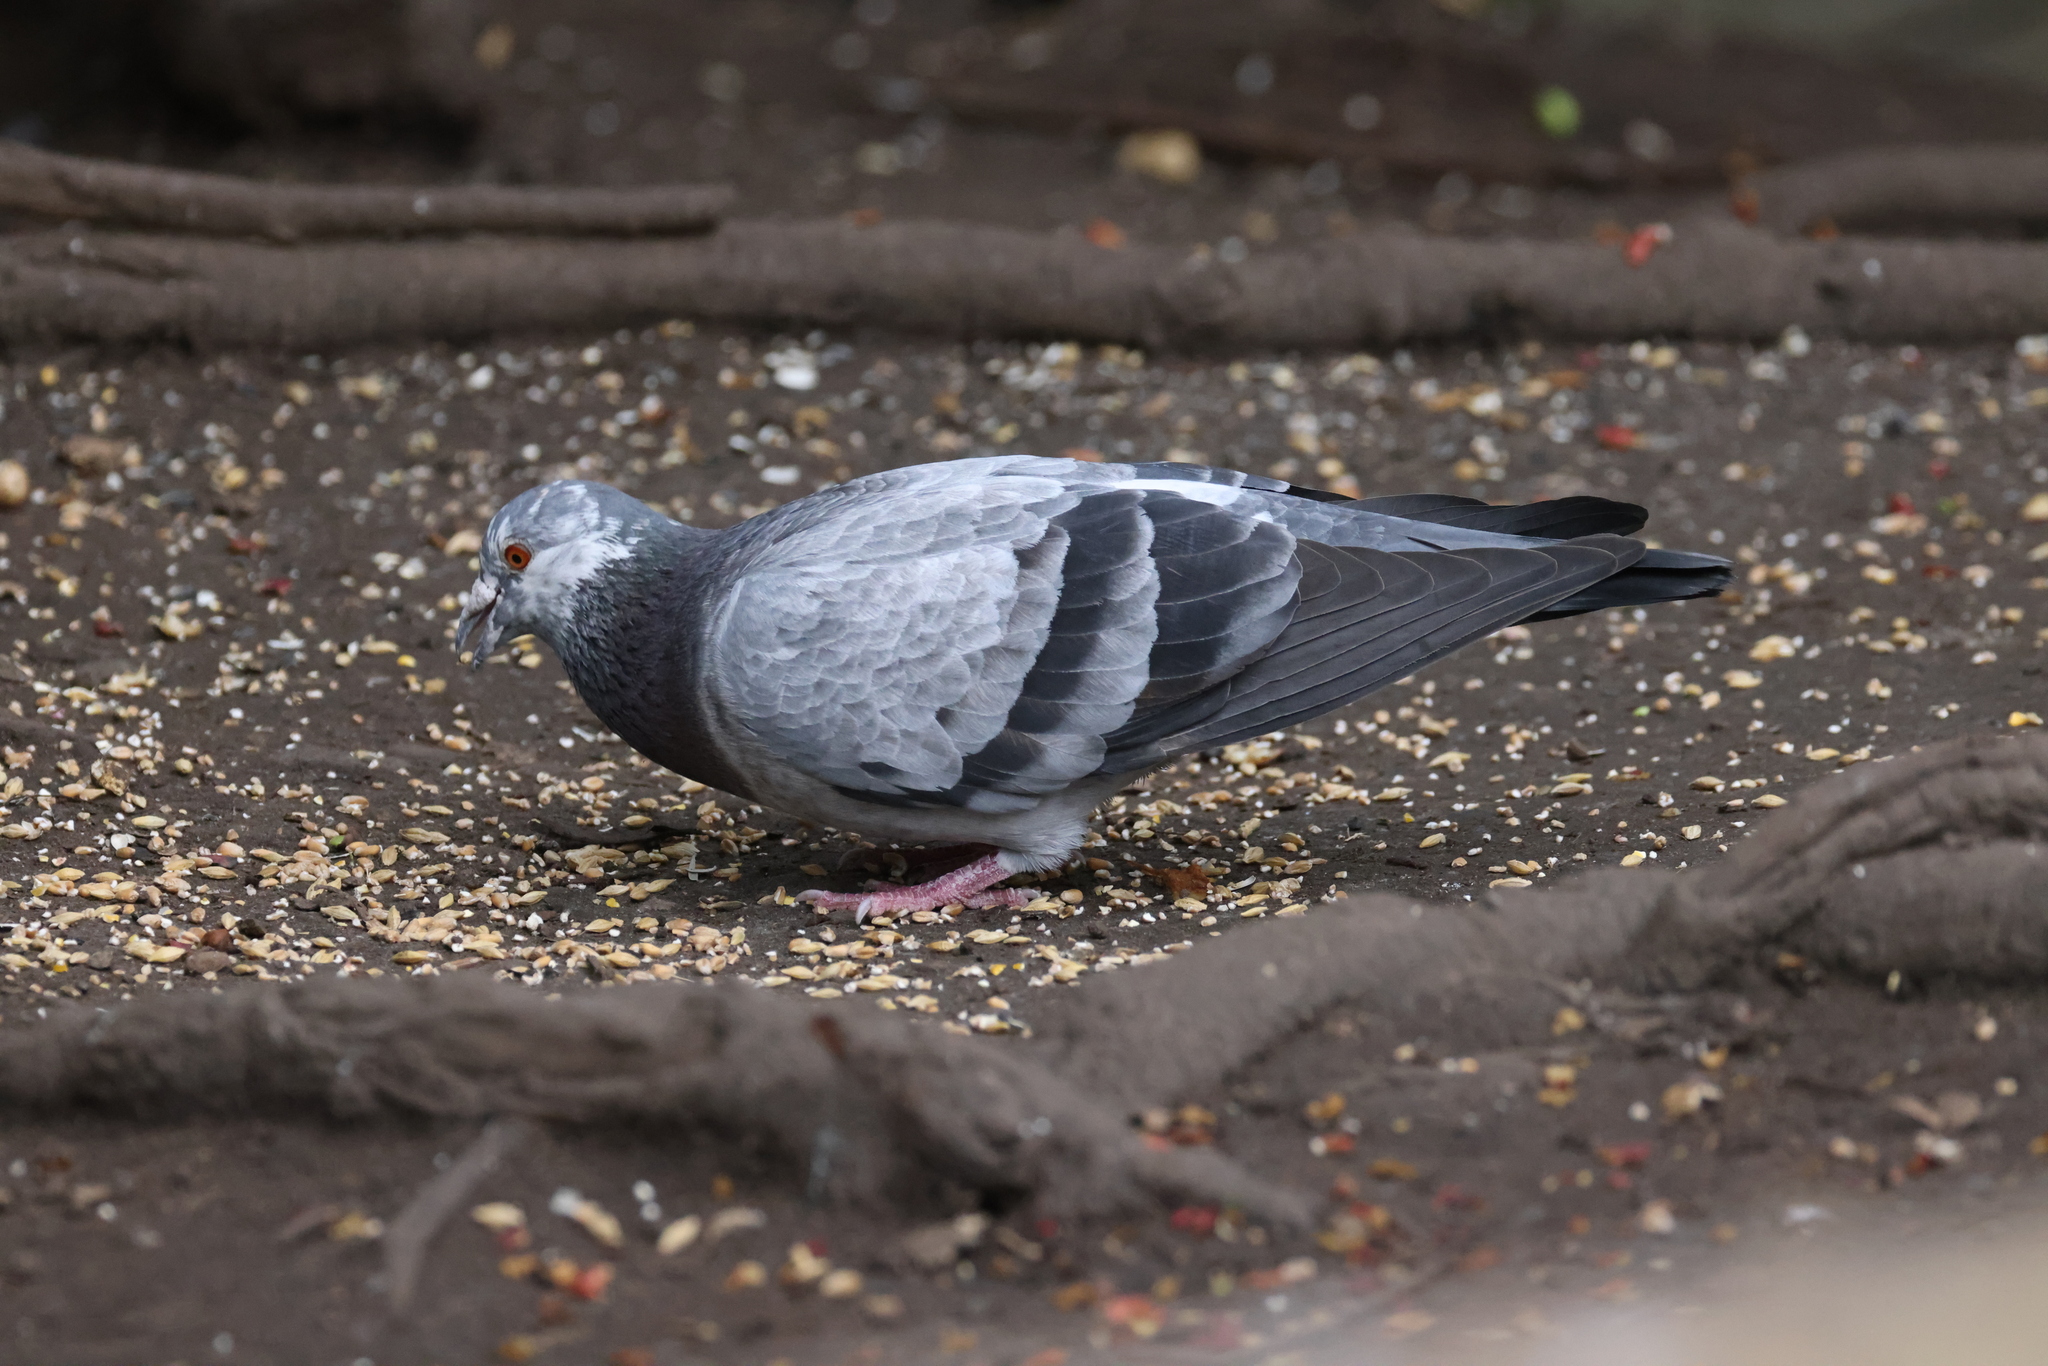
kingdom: Animalia
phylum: Chordata
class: Aves
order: Columbiformes
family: Columbidae
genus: Columba
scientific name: Columba livia
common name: Rock pigeon
